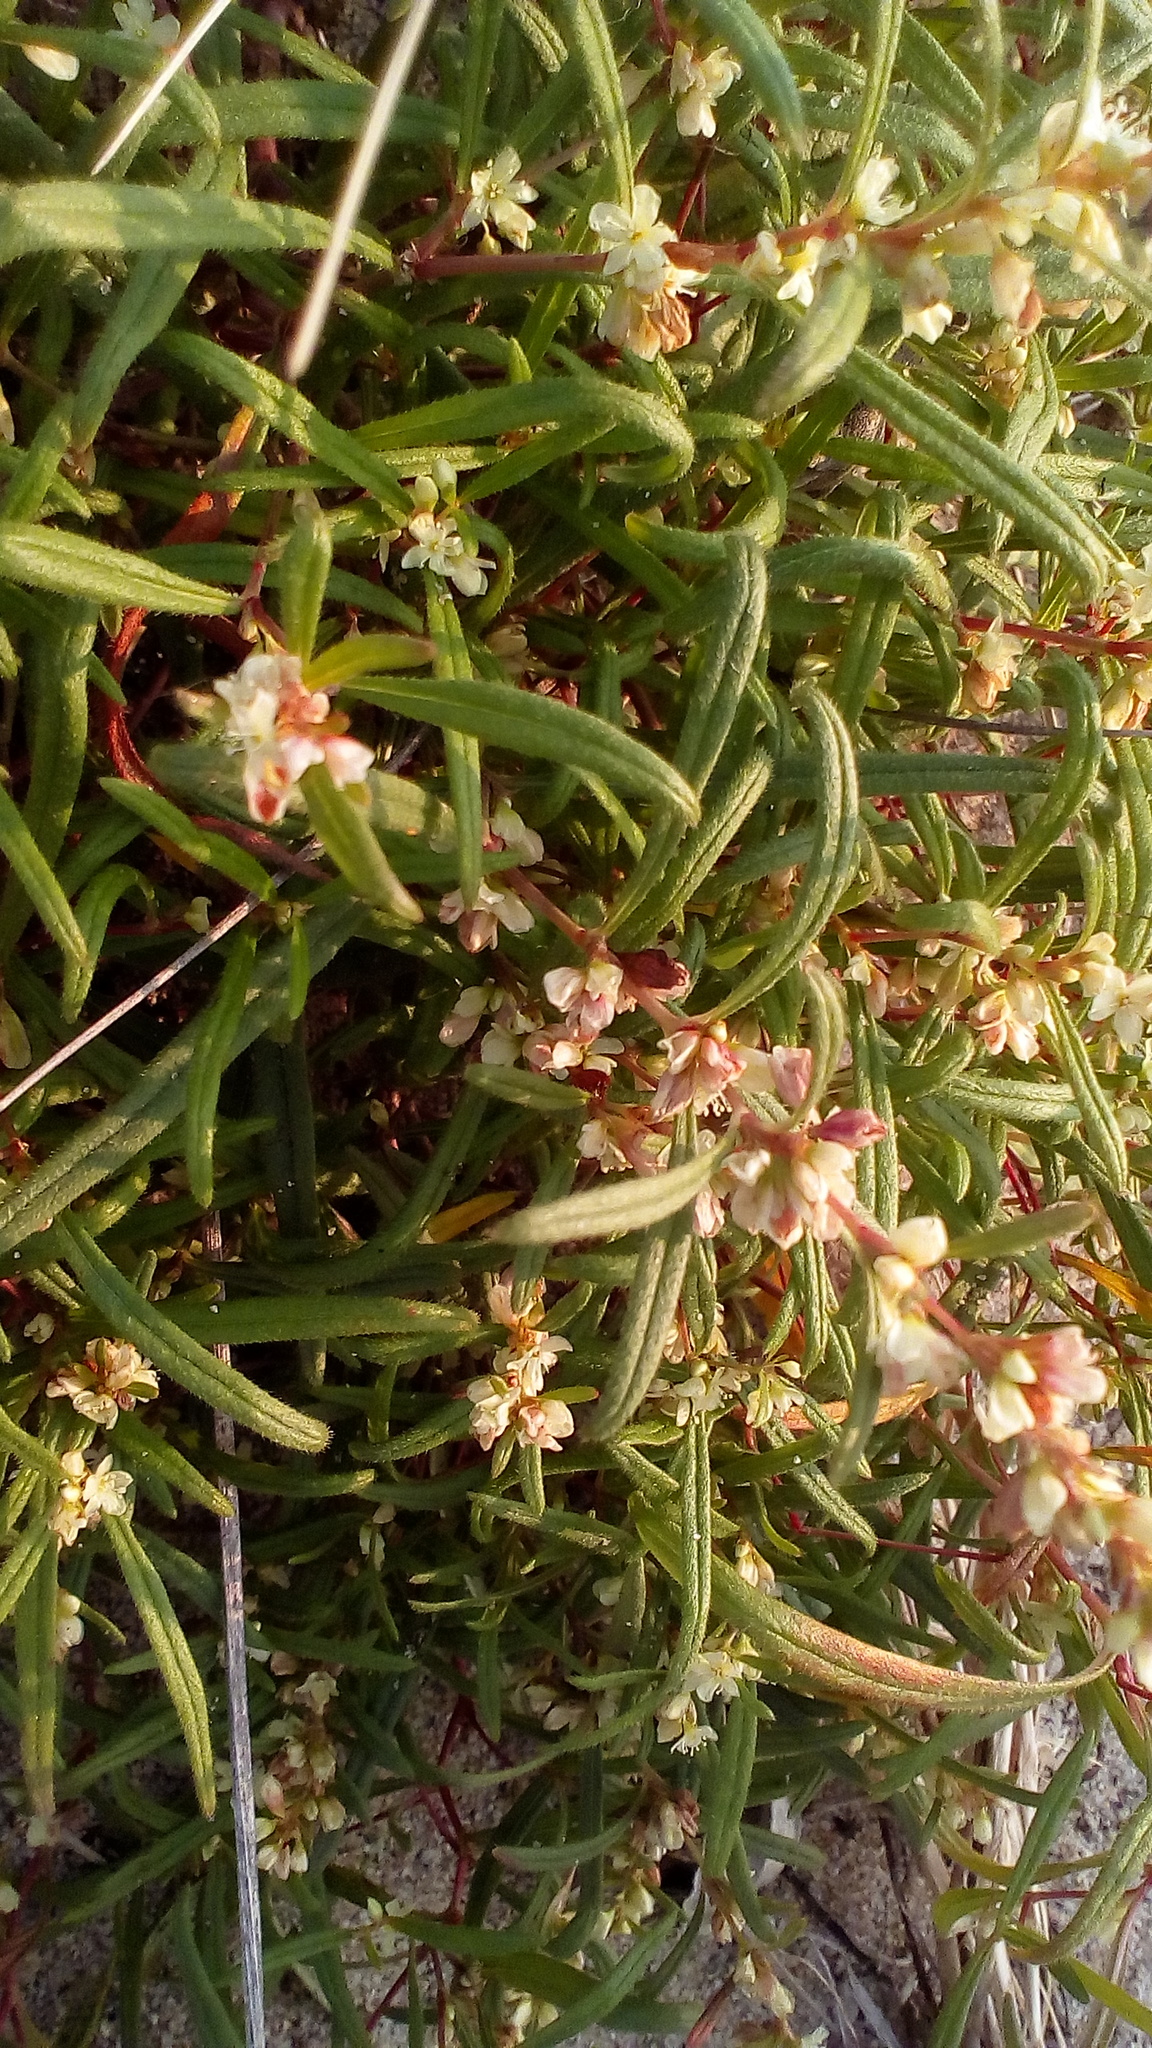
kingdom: Plantae
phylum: Tracheophyta
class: Magnoliopsida
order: Caryophyllales
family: Polygonaceae
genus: Koenigia
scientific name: Koenigia ocreata
